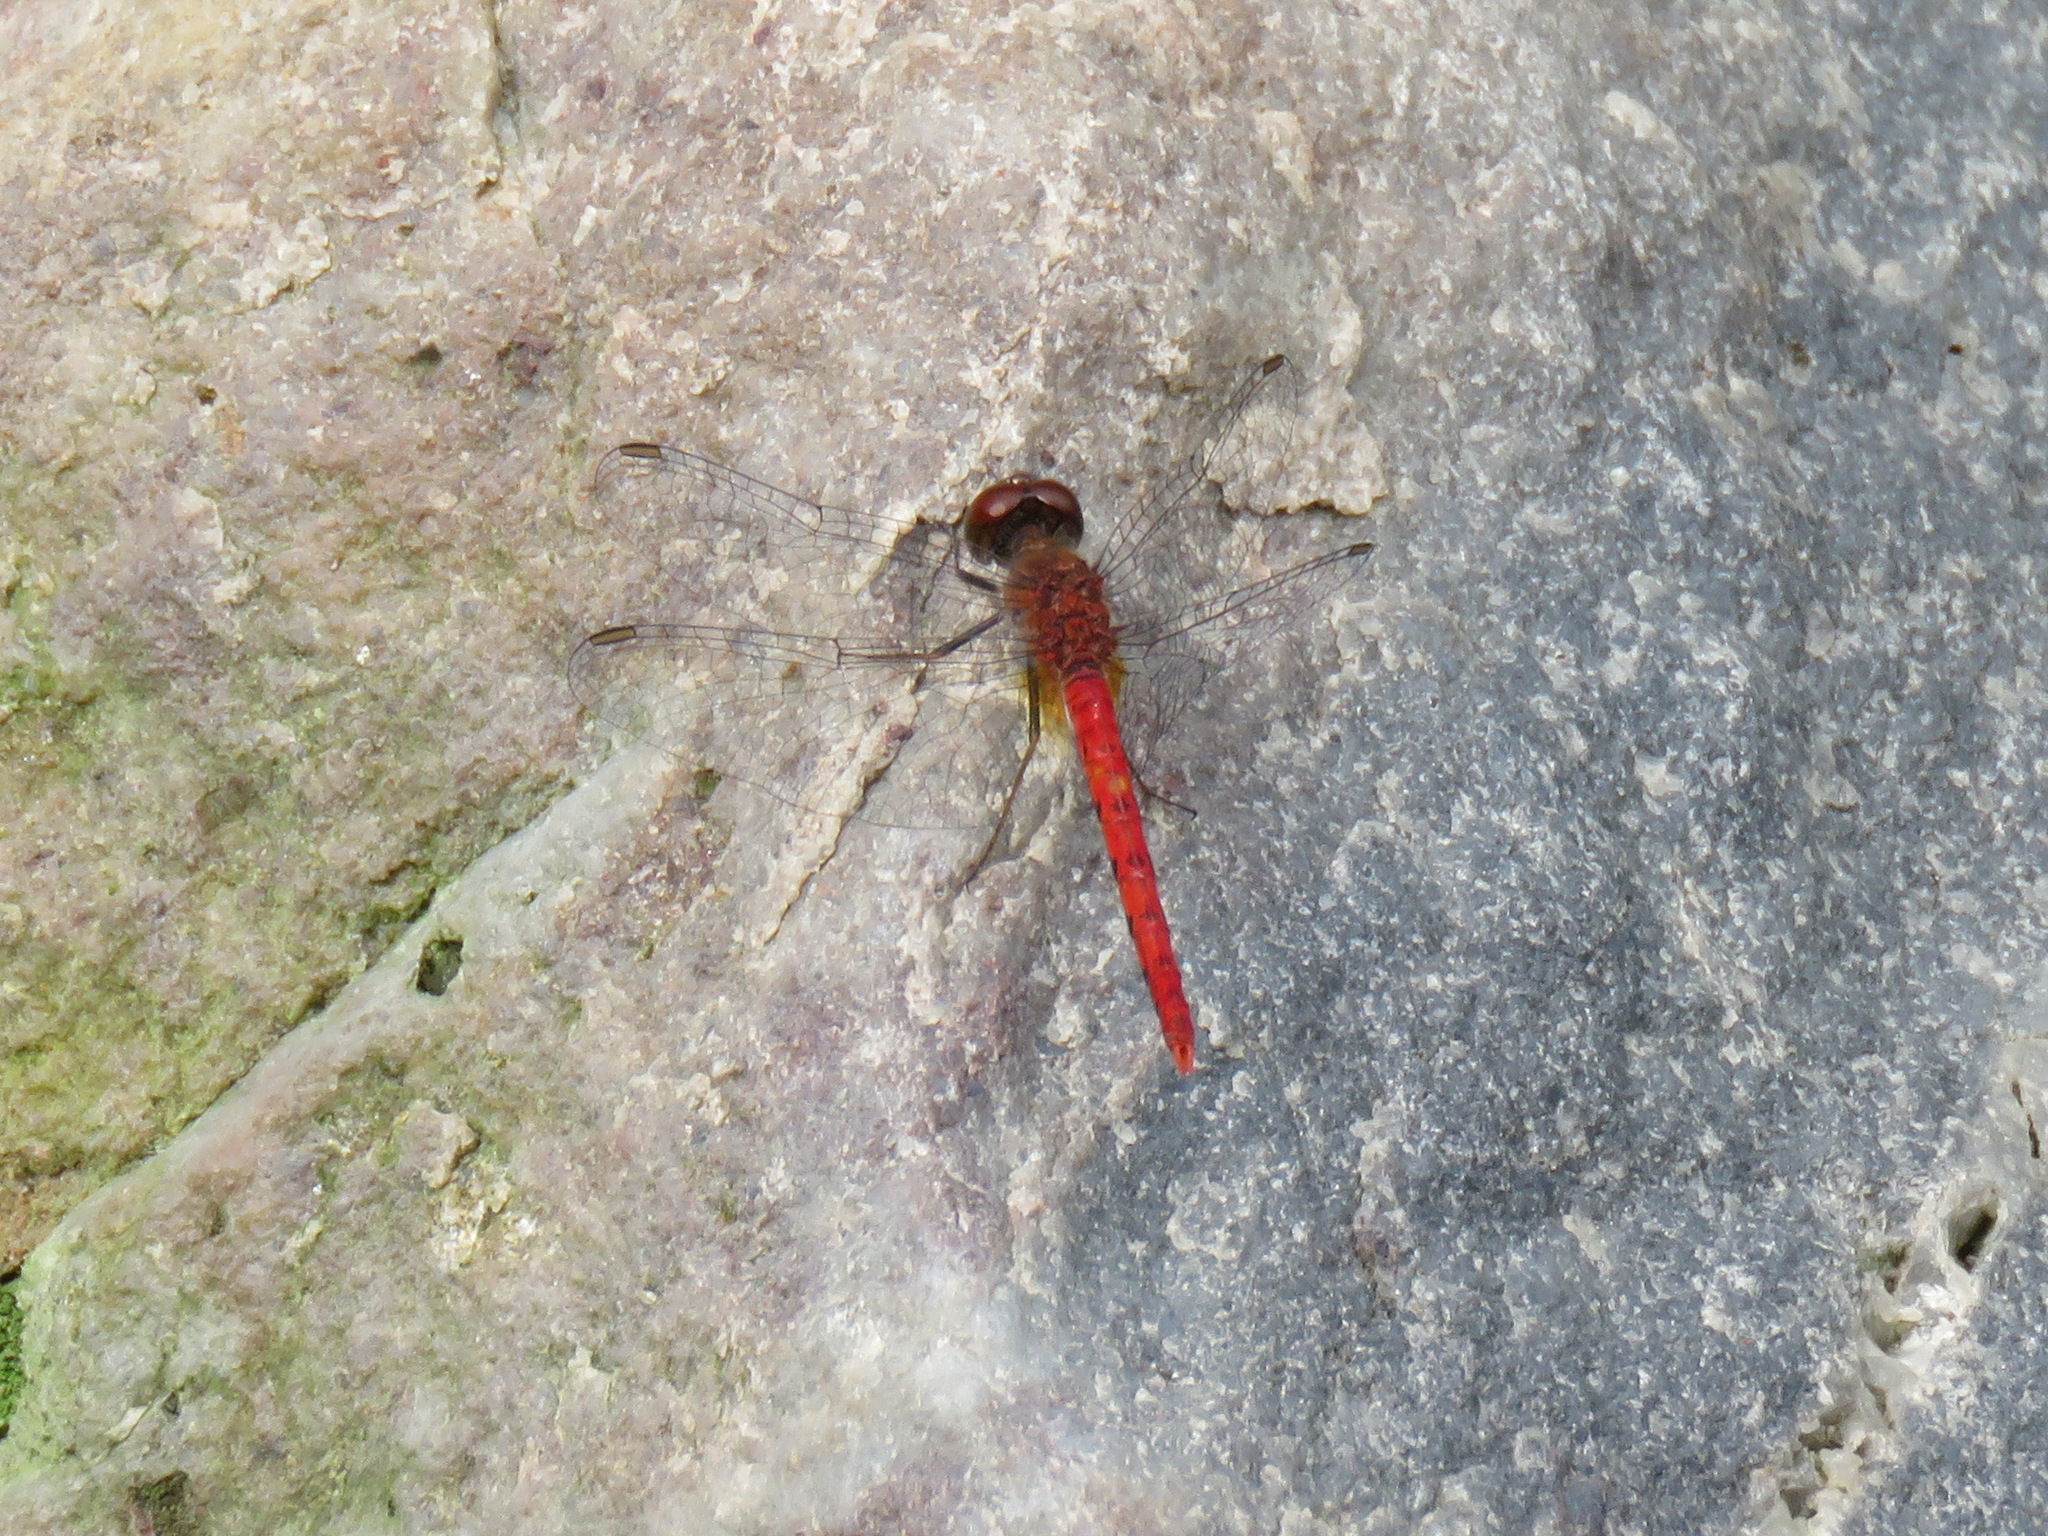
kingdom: Animalia
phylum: Arthropoda
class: Insecta
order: Odonata
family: Libellulidae
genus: Nannodiplax
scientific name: Nannodiplax rubra
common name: Pygmy percher
